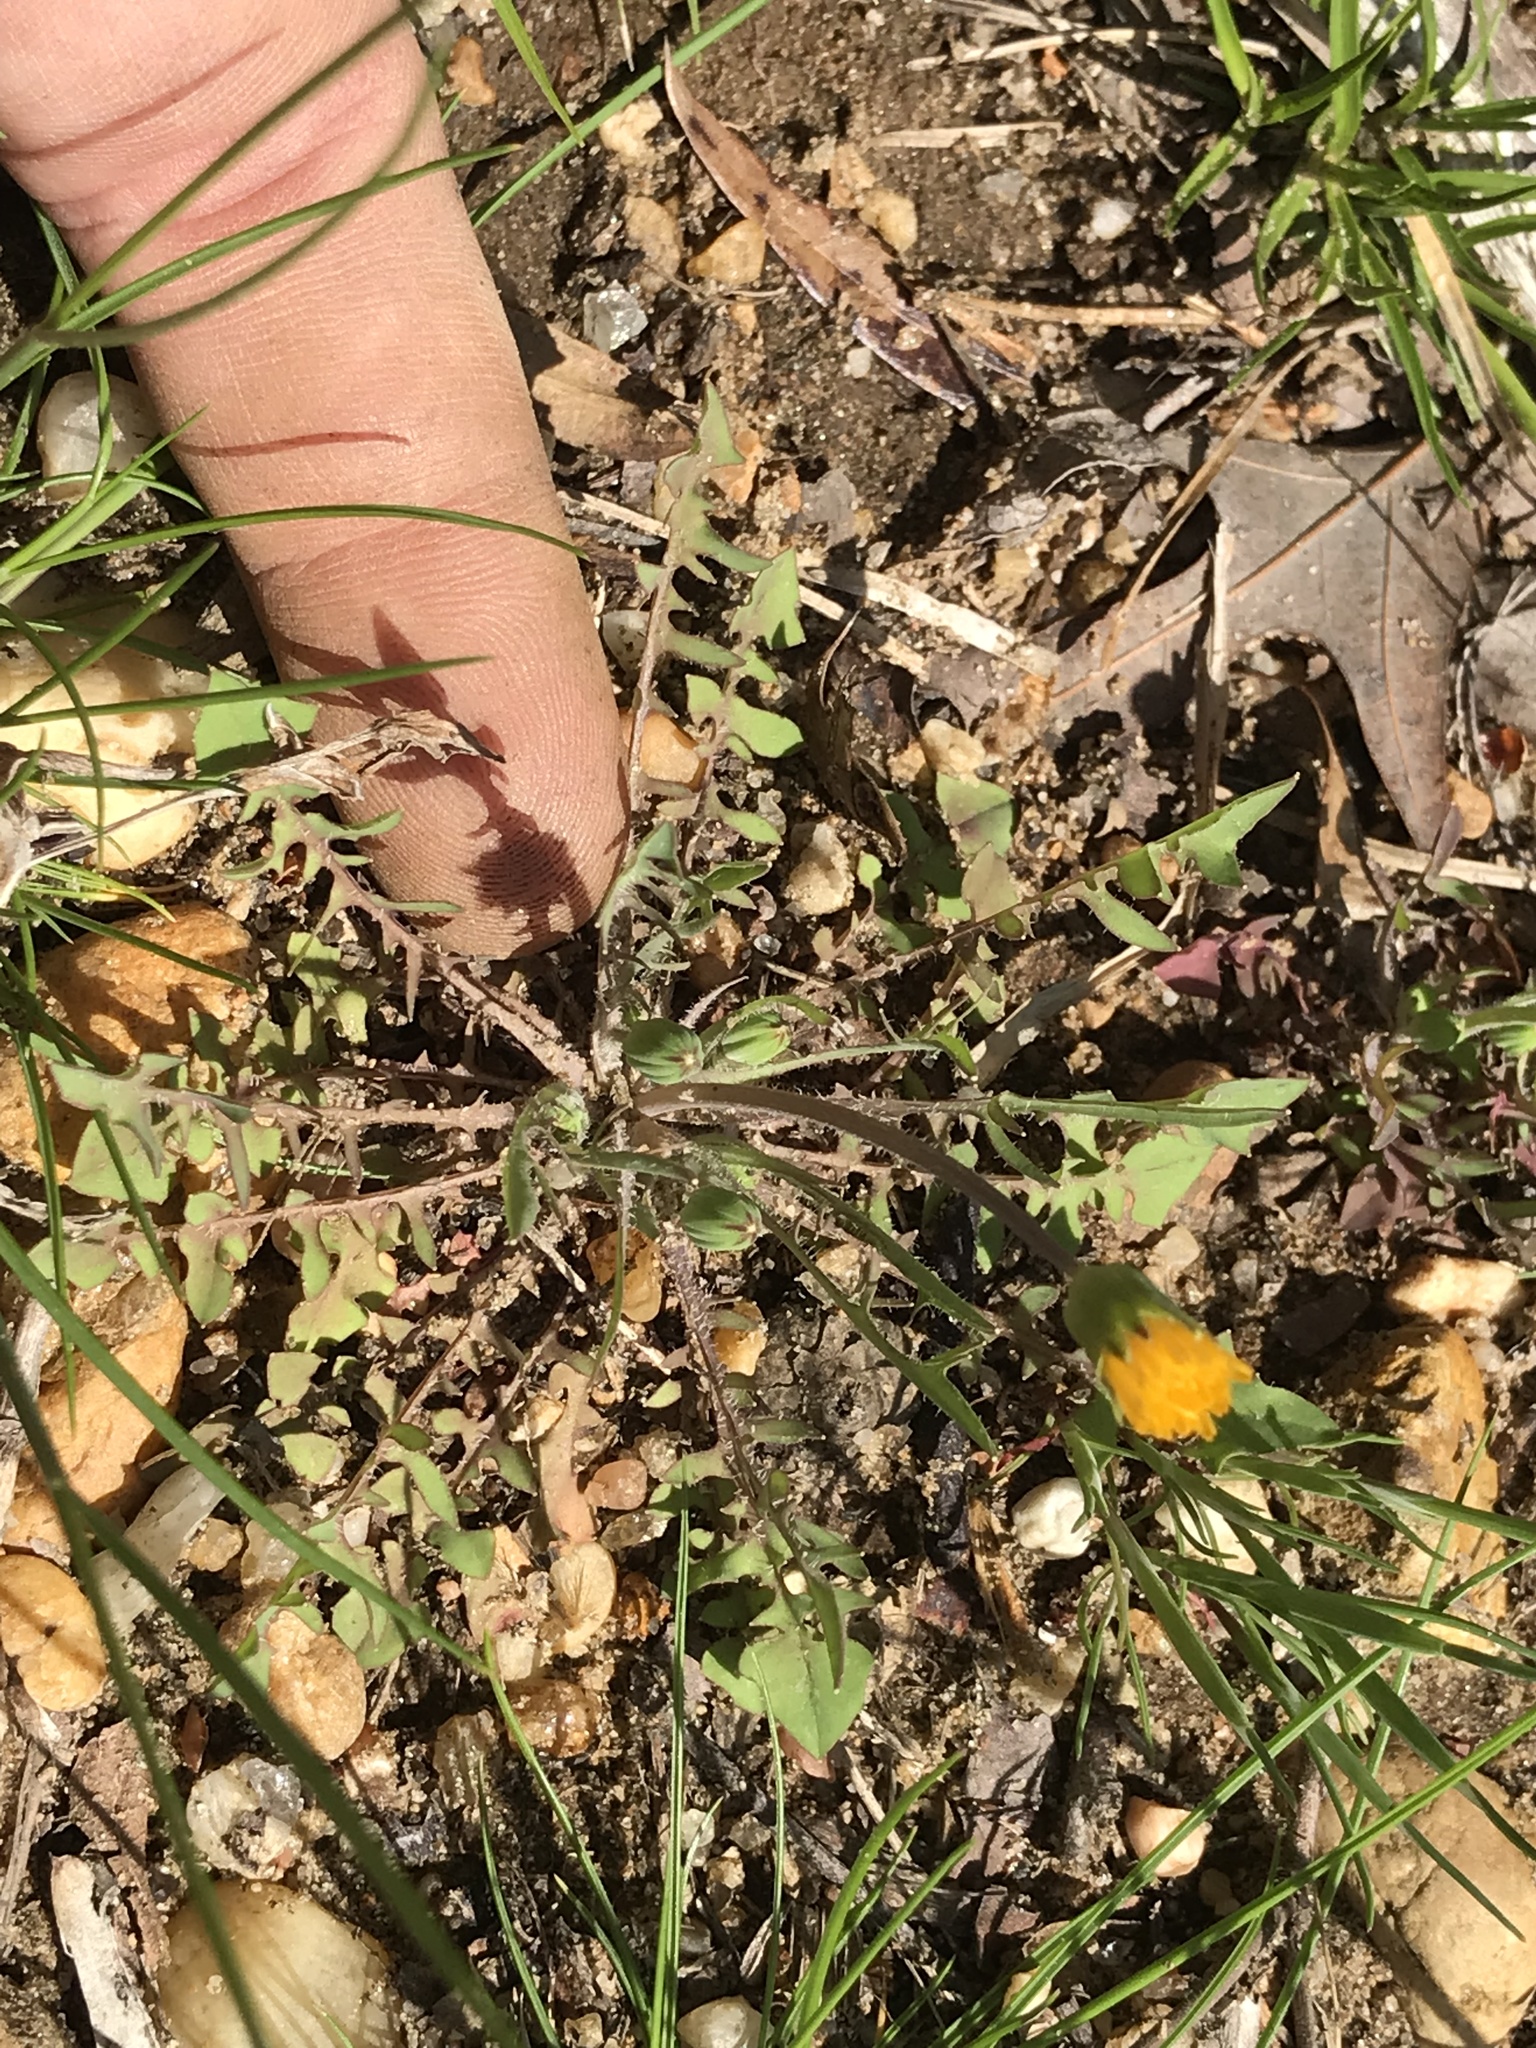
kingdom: Plantae
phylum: Tracheophyta
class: Magnoliopsida
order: Asterales
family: Asteraceae
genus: Krigia
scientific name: Krigia virginica
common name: Virginia dwarf-dandelion
